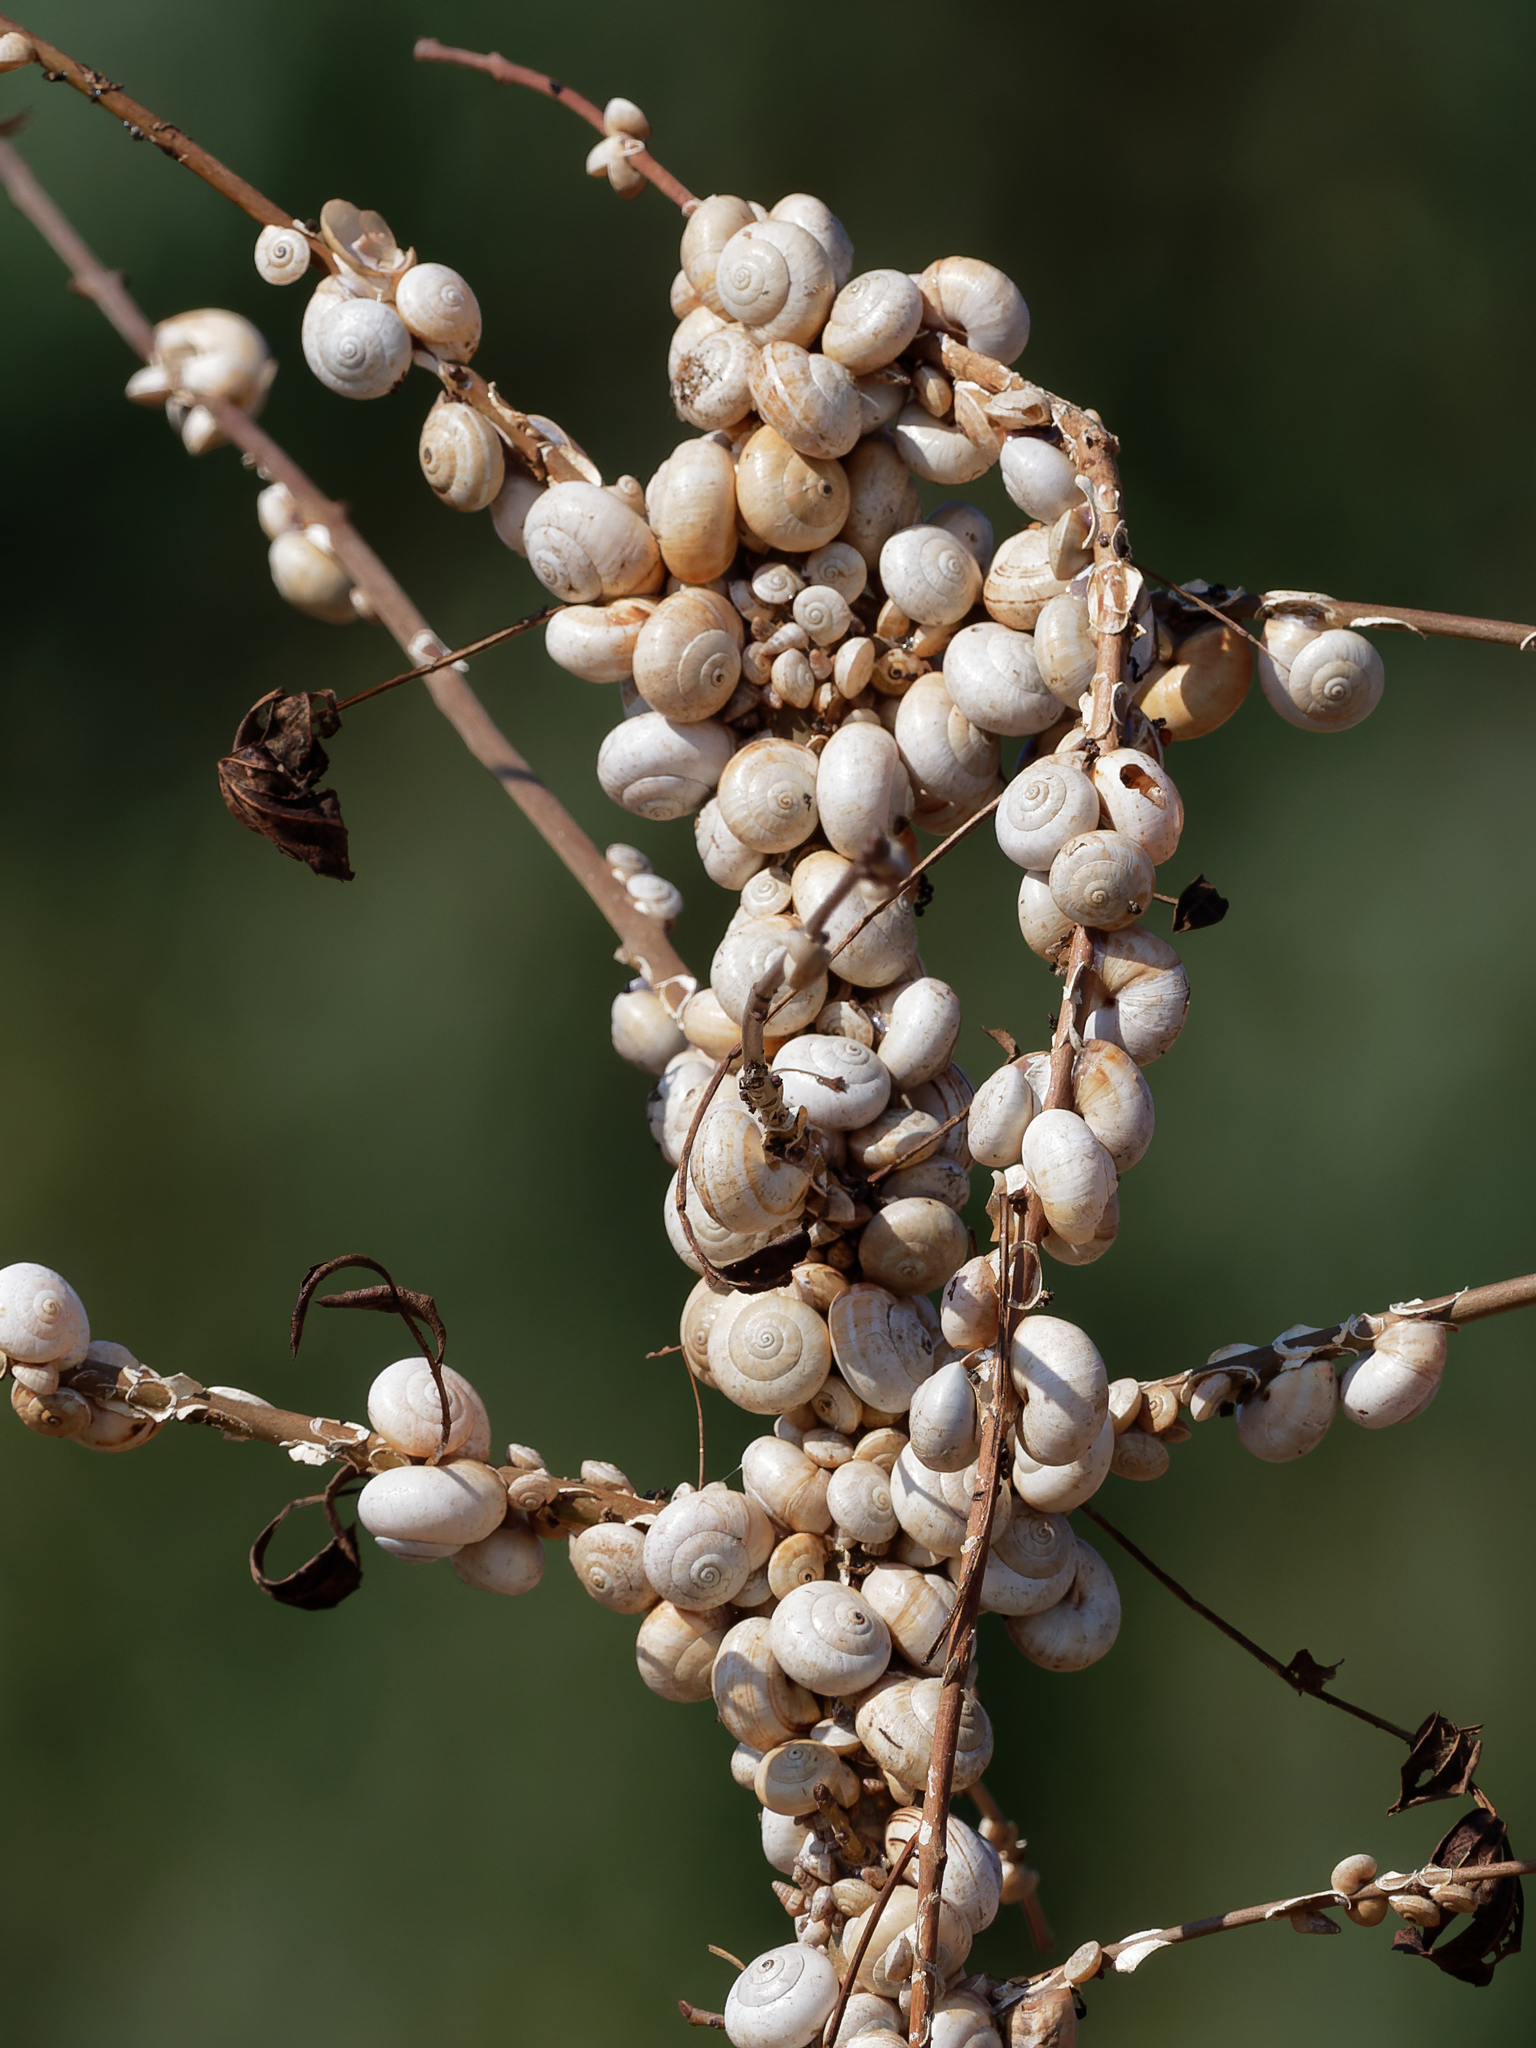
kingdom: Animalia
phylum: Mollusca
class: Gastropoda
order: Stylommatophora
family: Helicidae
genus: Theba
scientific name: Theba pisana
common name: White snail
